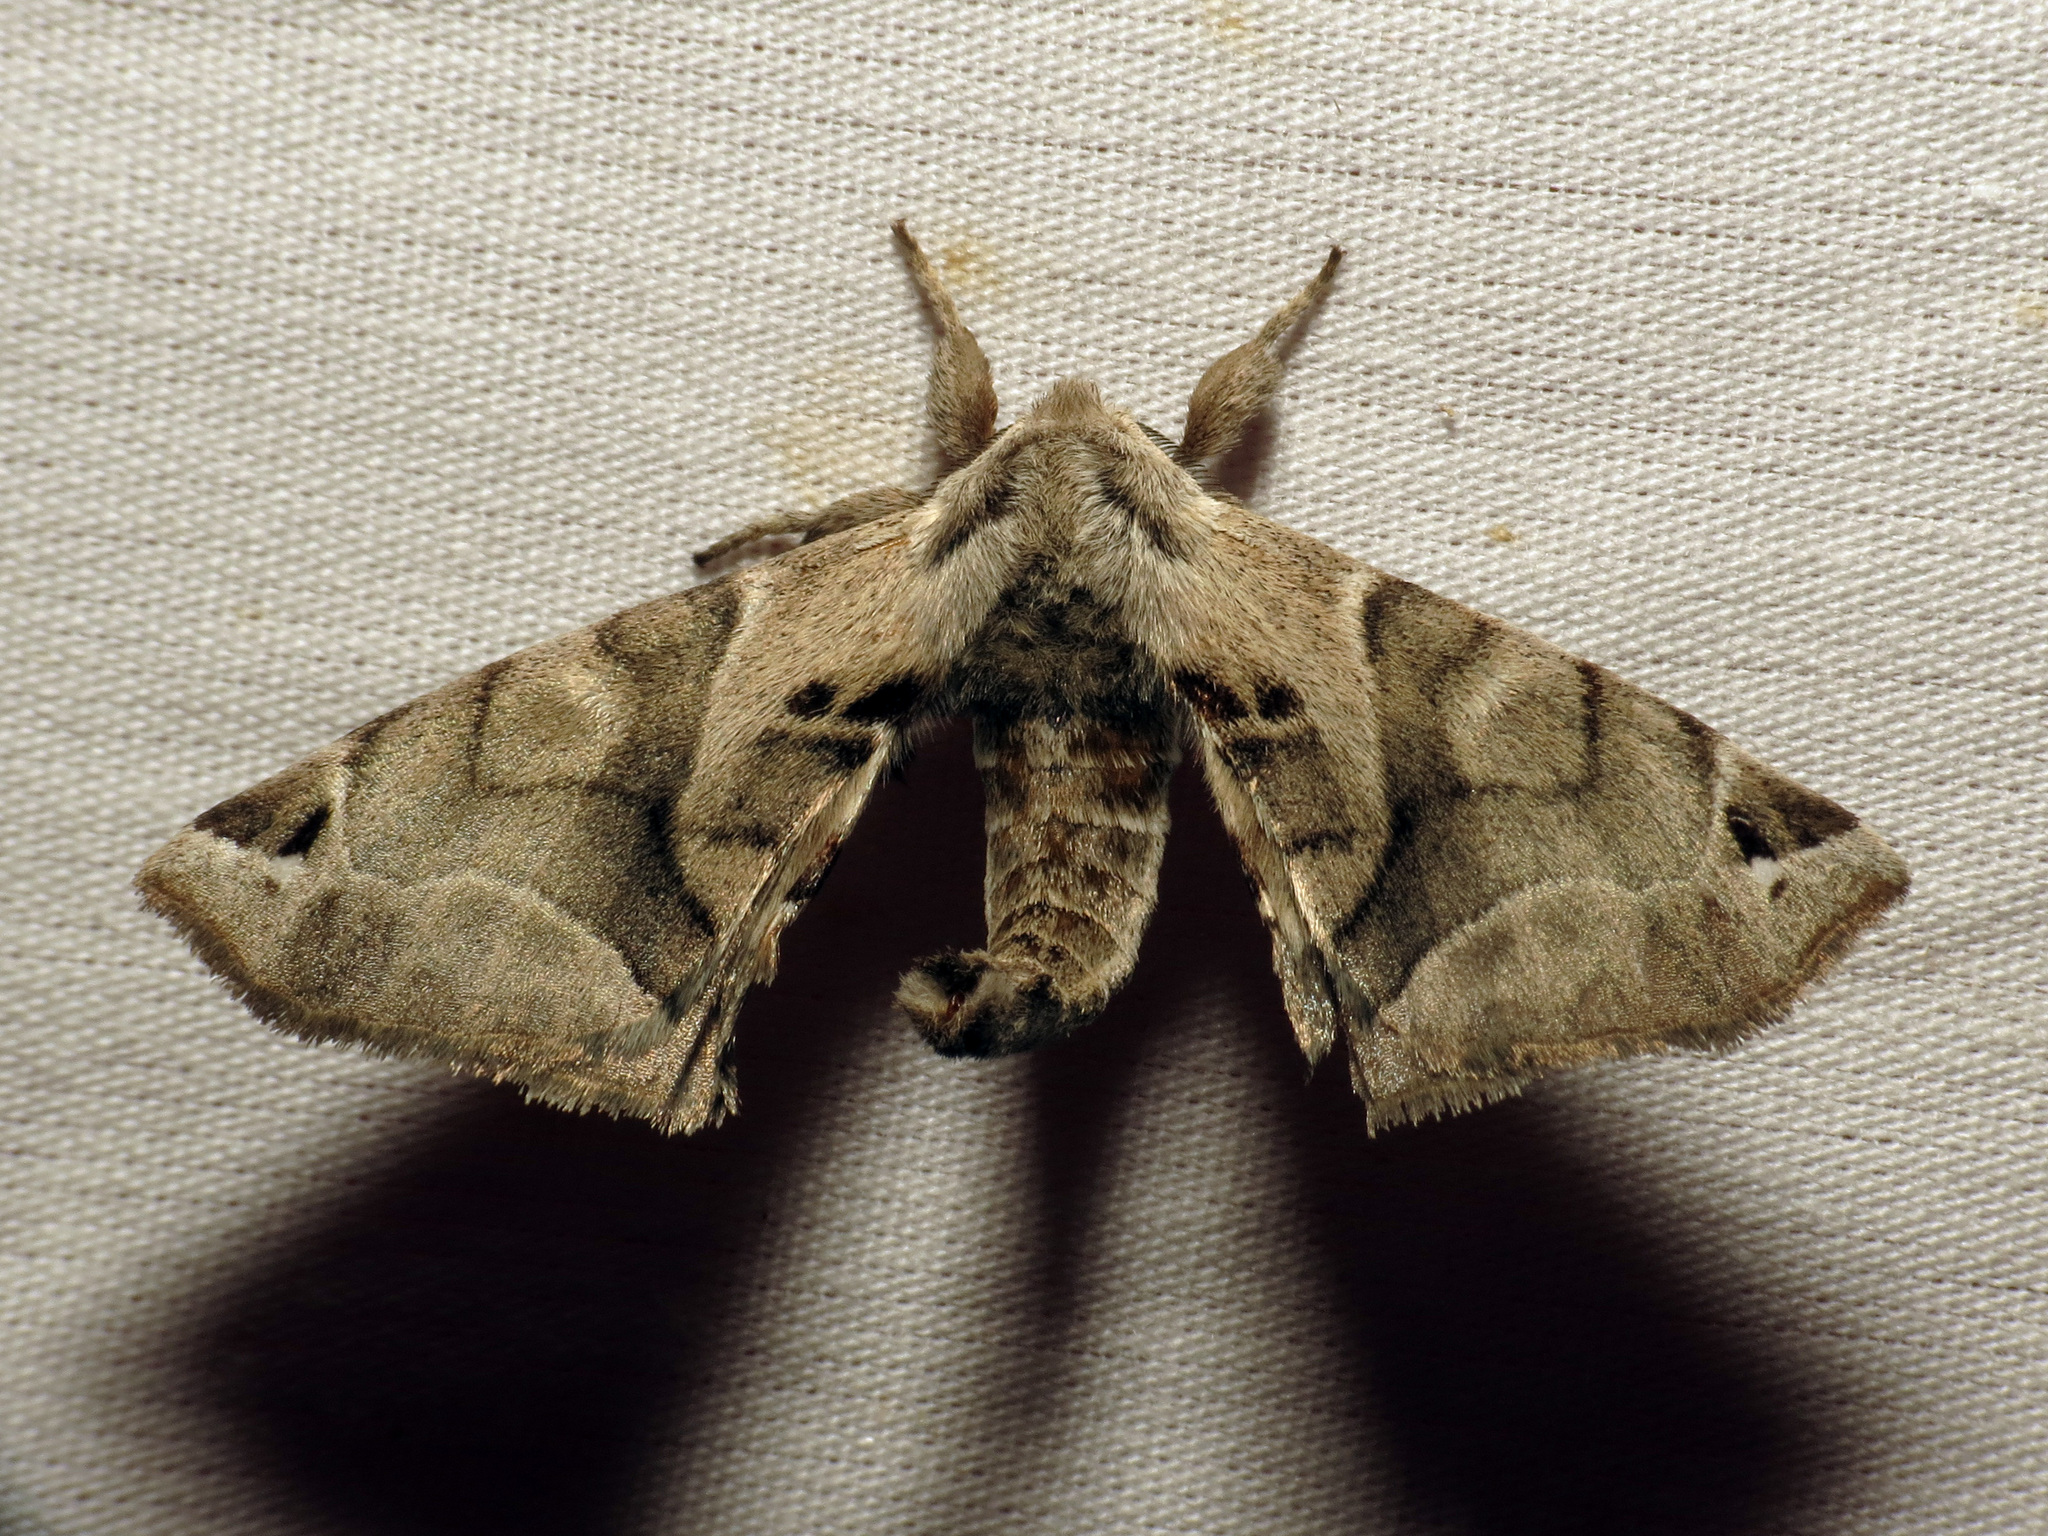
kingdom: Animalia
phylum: Arthropoda
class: Insecta
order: Lepidoptera
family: Apatelodidae
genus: Hygrochroa
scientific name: Hygrochroa Apatelodes pudefacta
